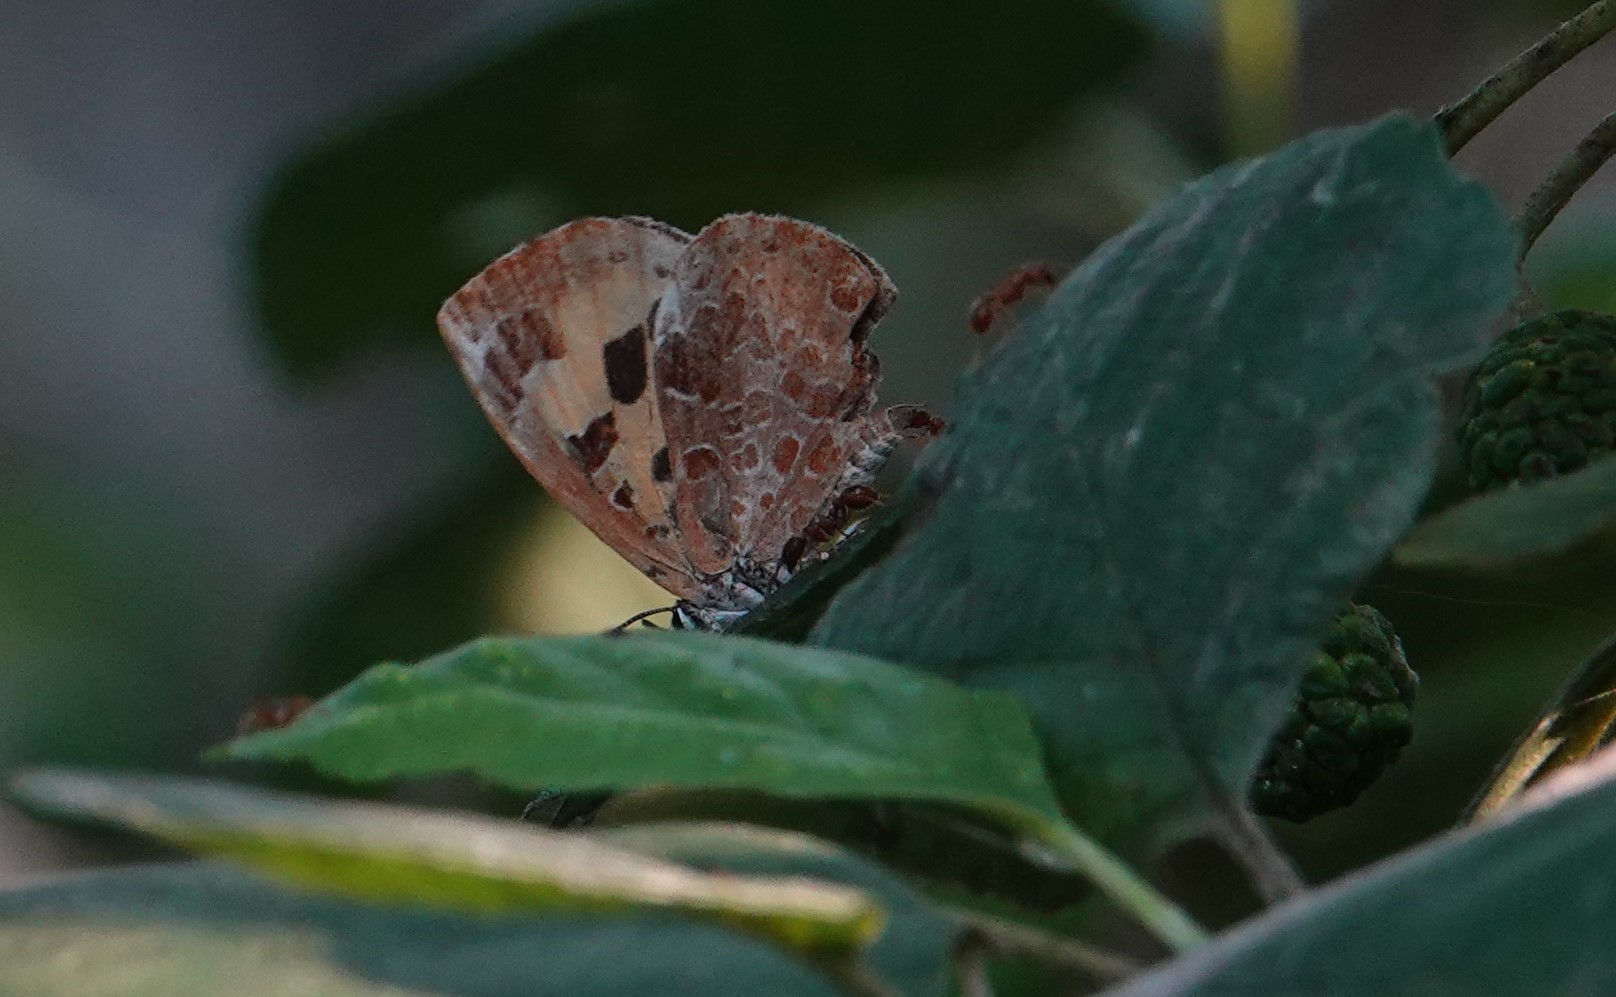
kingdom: Animalia
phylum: Arthropoda
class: Insecta
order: Lepidoptera
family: Lycaenidae
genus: Feniseca
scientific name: Feniseca tarquinius
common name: Harvester
